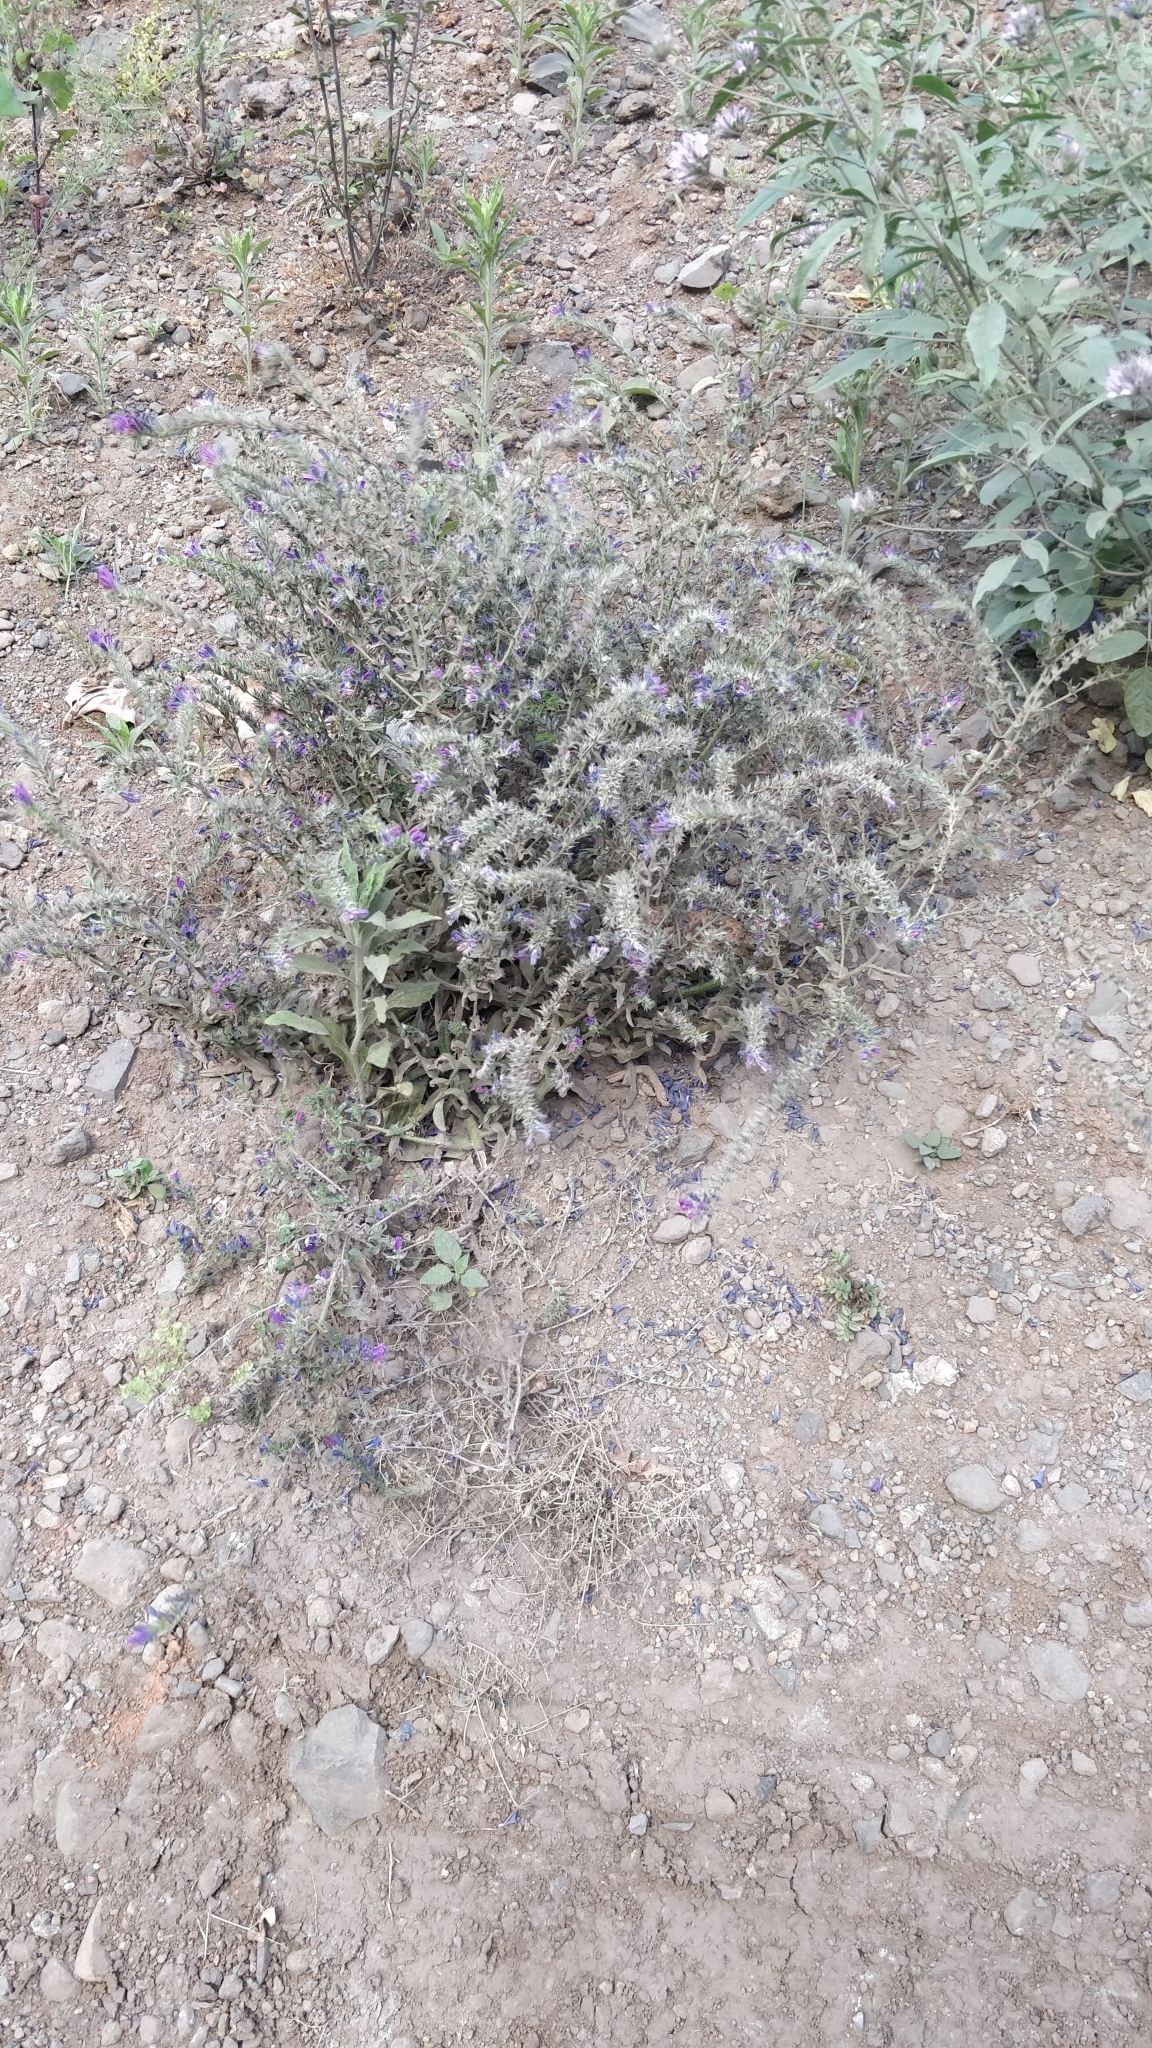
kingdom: Plantae
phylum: Tracheophyta
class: Magnoliopsida
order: Boraginales
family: Boraginaceae
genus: Echium
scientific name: Echium plantagineum
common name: Purple viper's-bugloss
